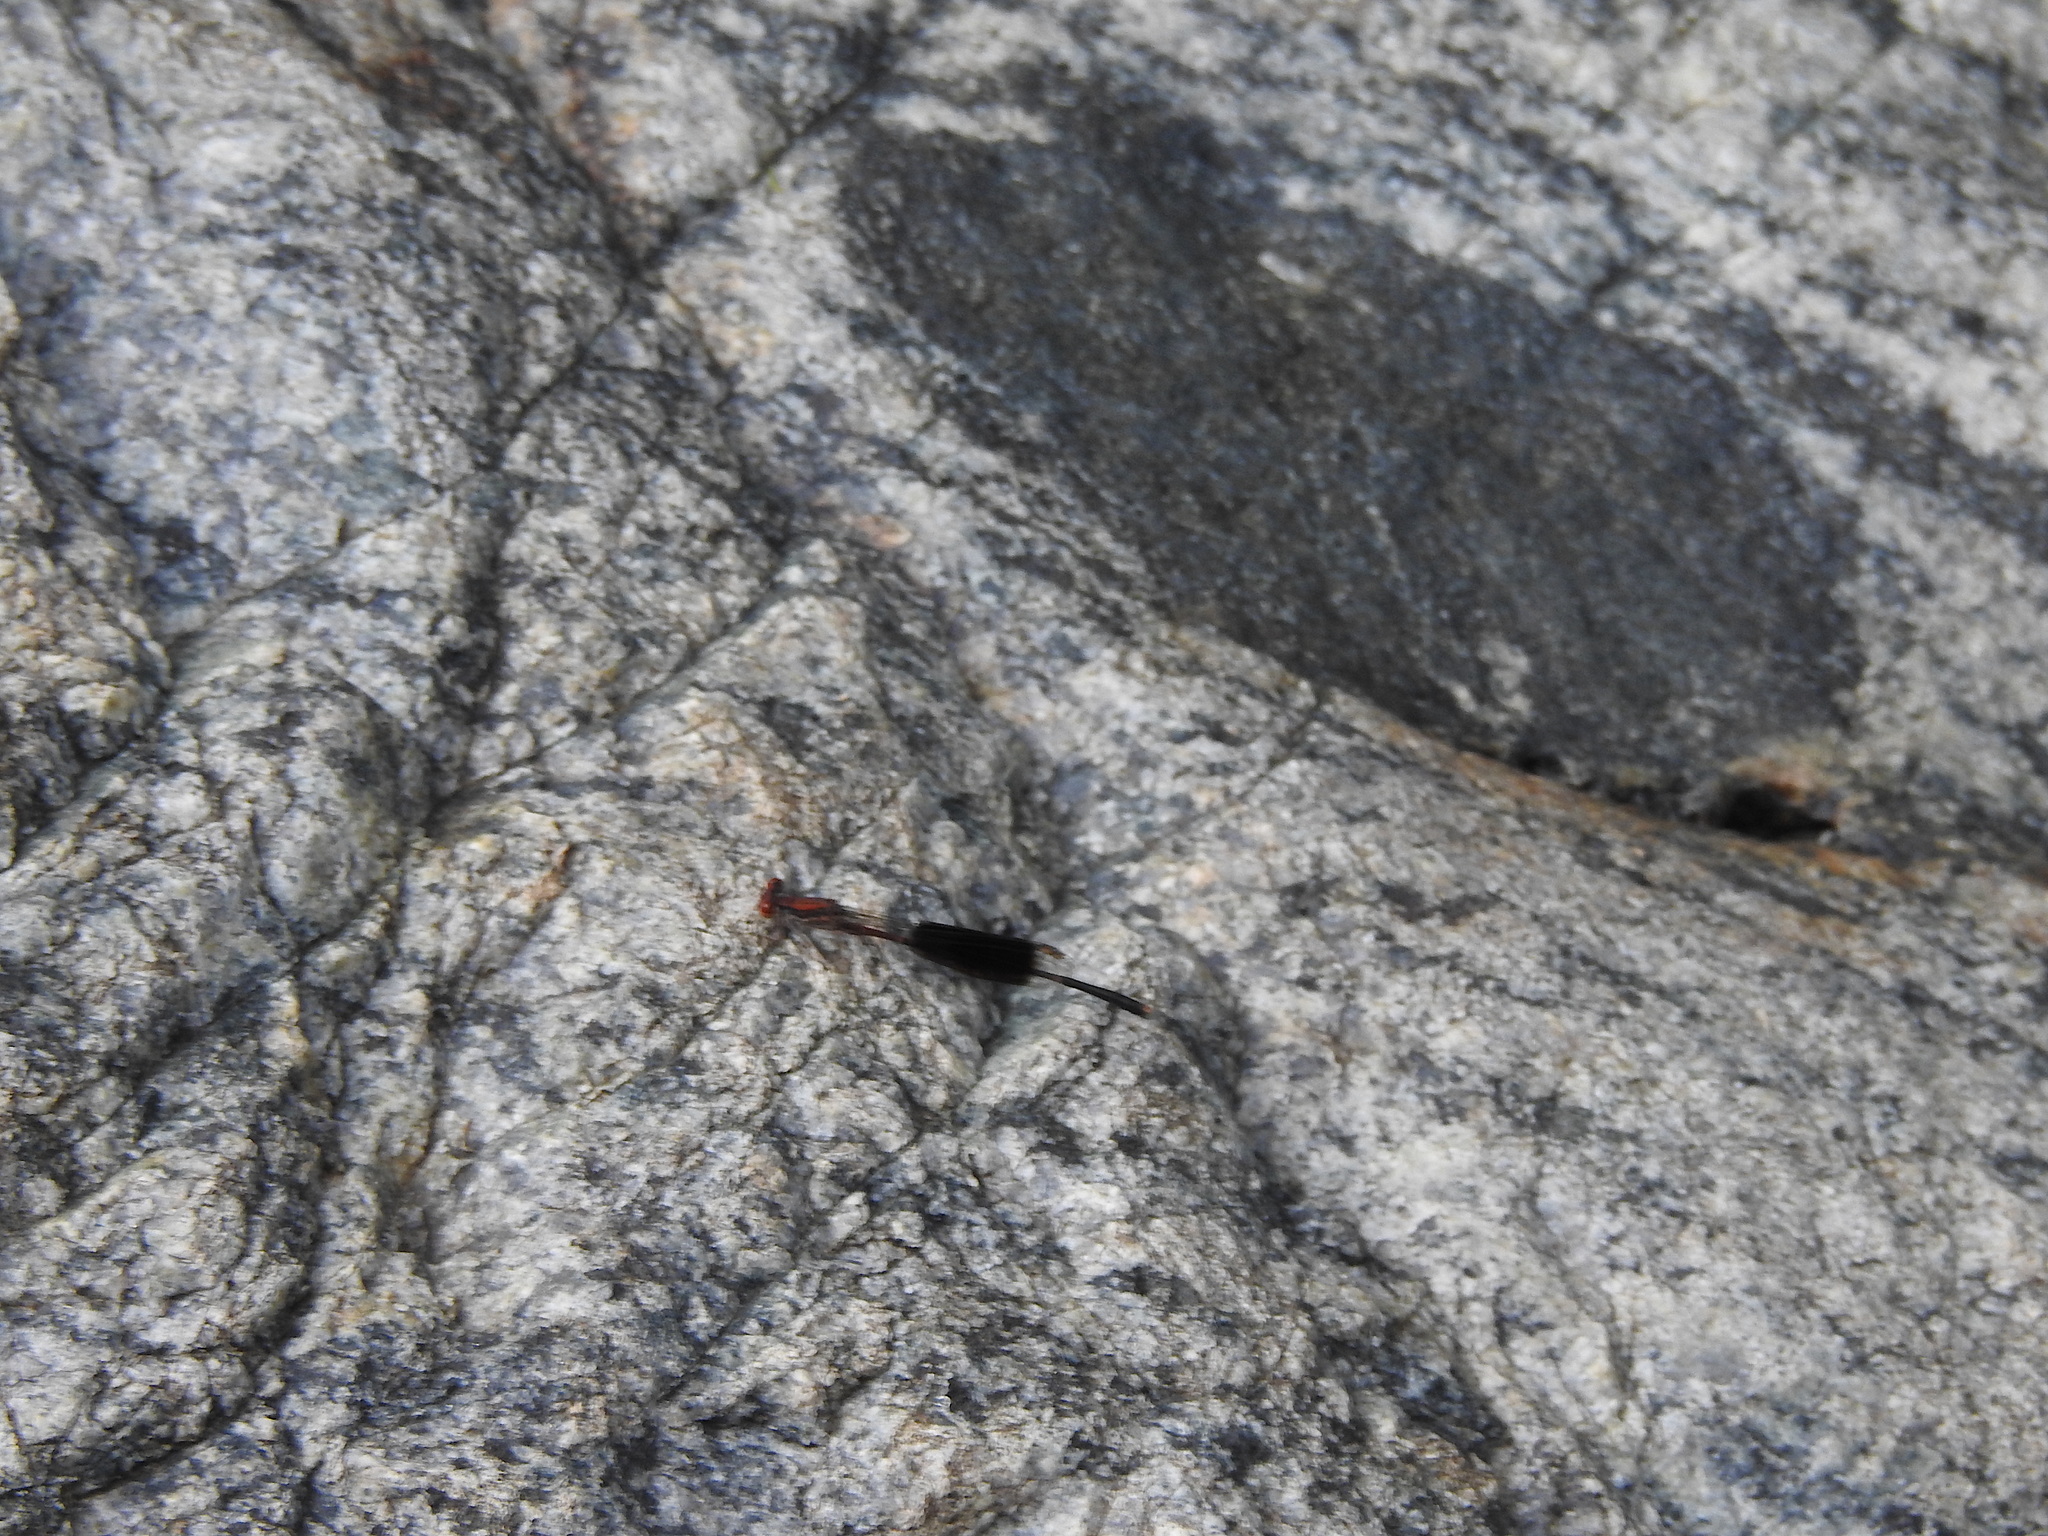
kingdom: Animalia
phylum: Arthropoda
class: Insecta
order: Odonata
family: Platycnemididae
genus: Disparoneura
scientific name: Disparoneura quadrimaculata
